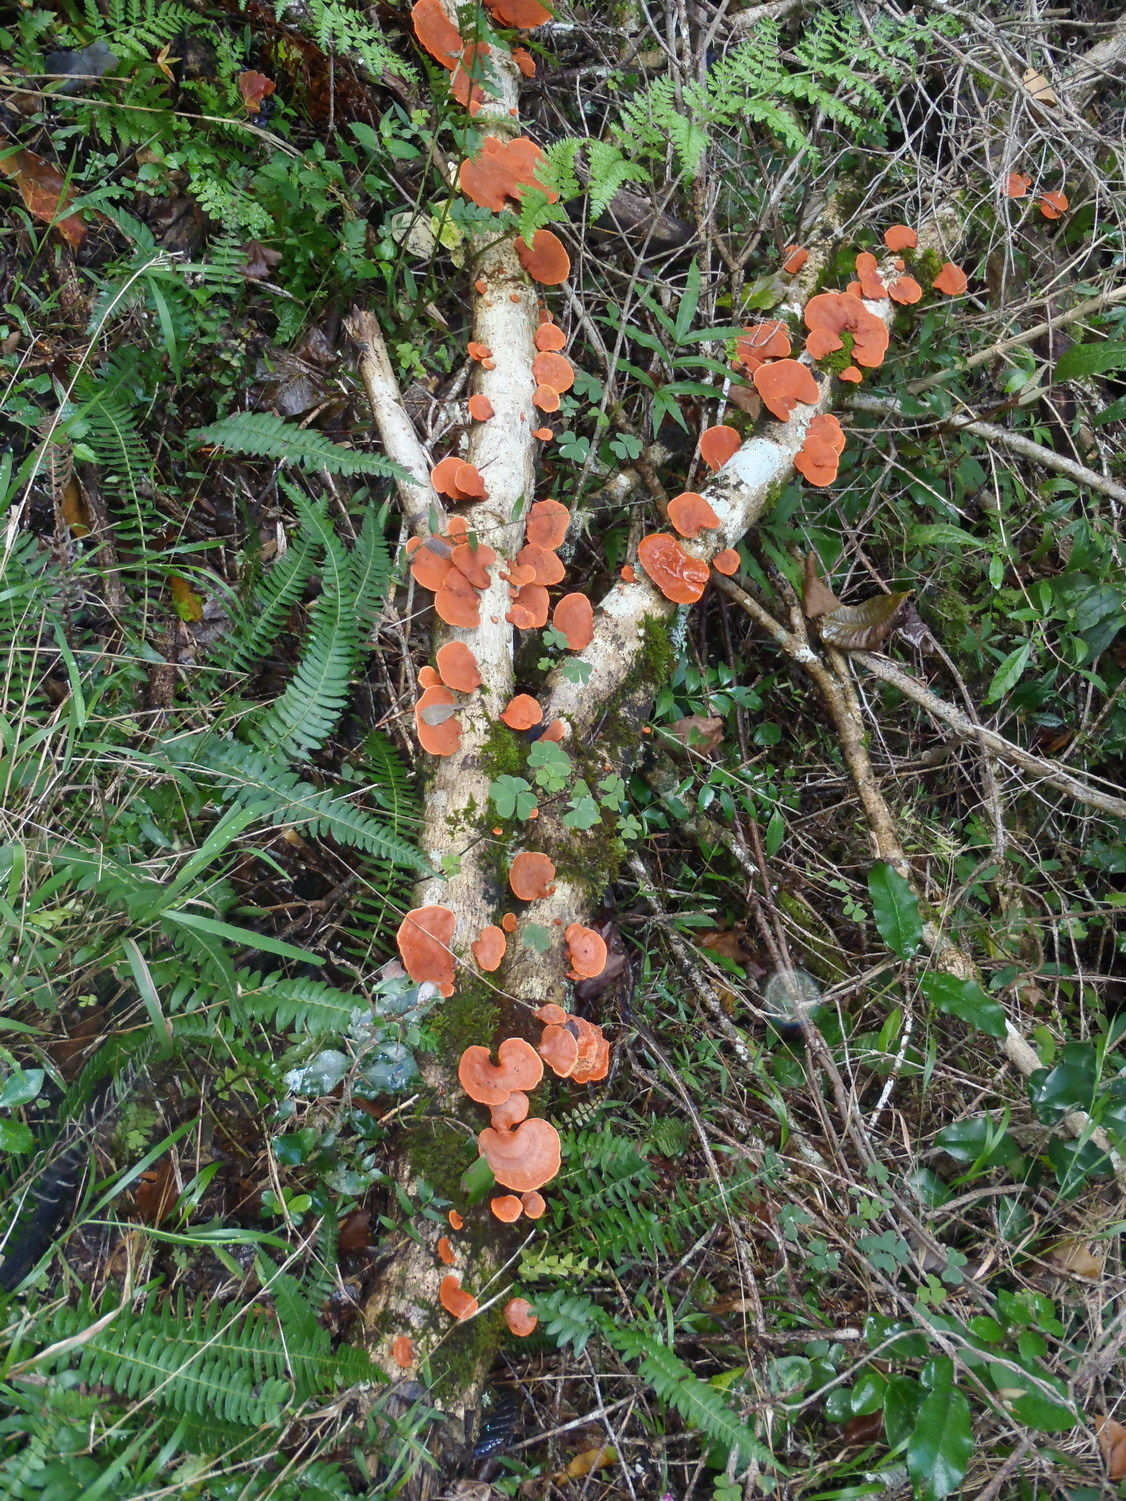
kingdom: Fungi
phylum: Basidiomycota
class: Agaricomycetes
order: Polyporales
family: Polyporaceae
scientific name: Polyporaceae
